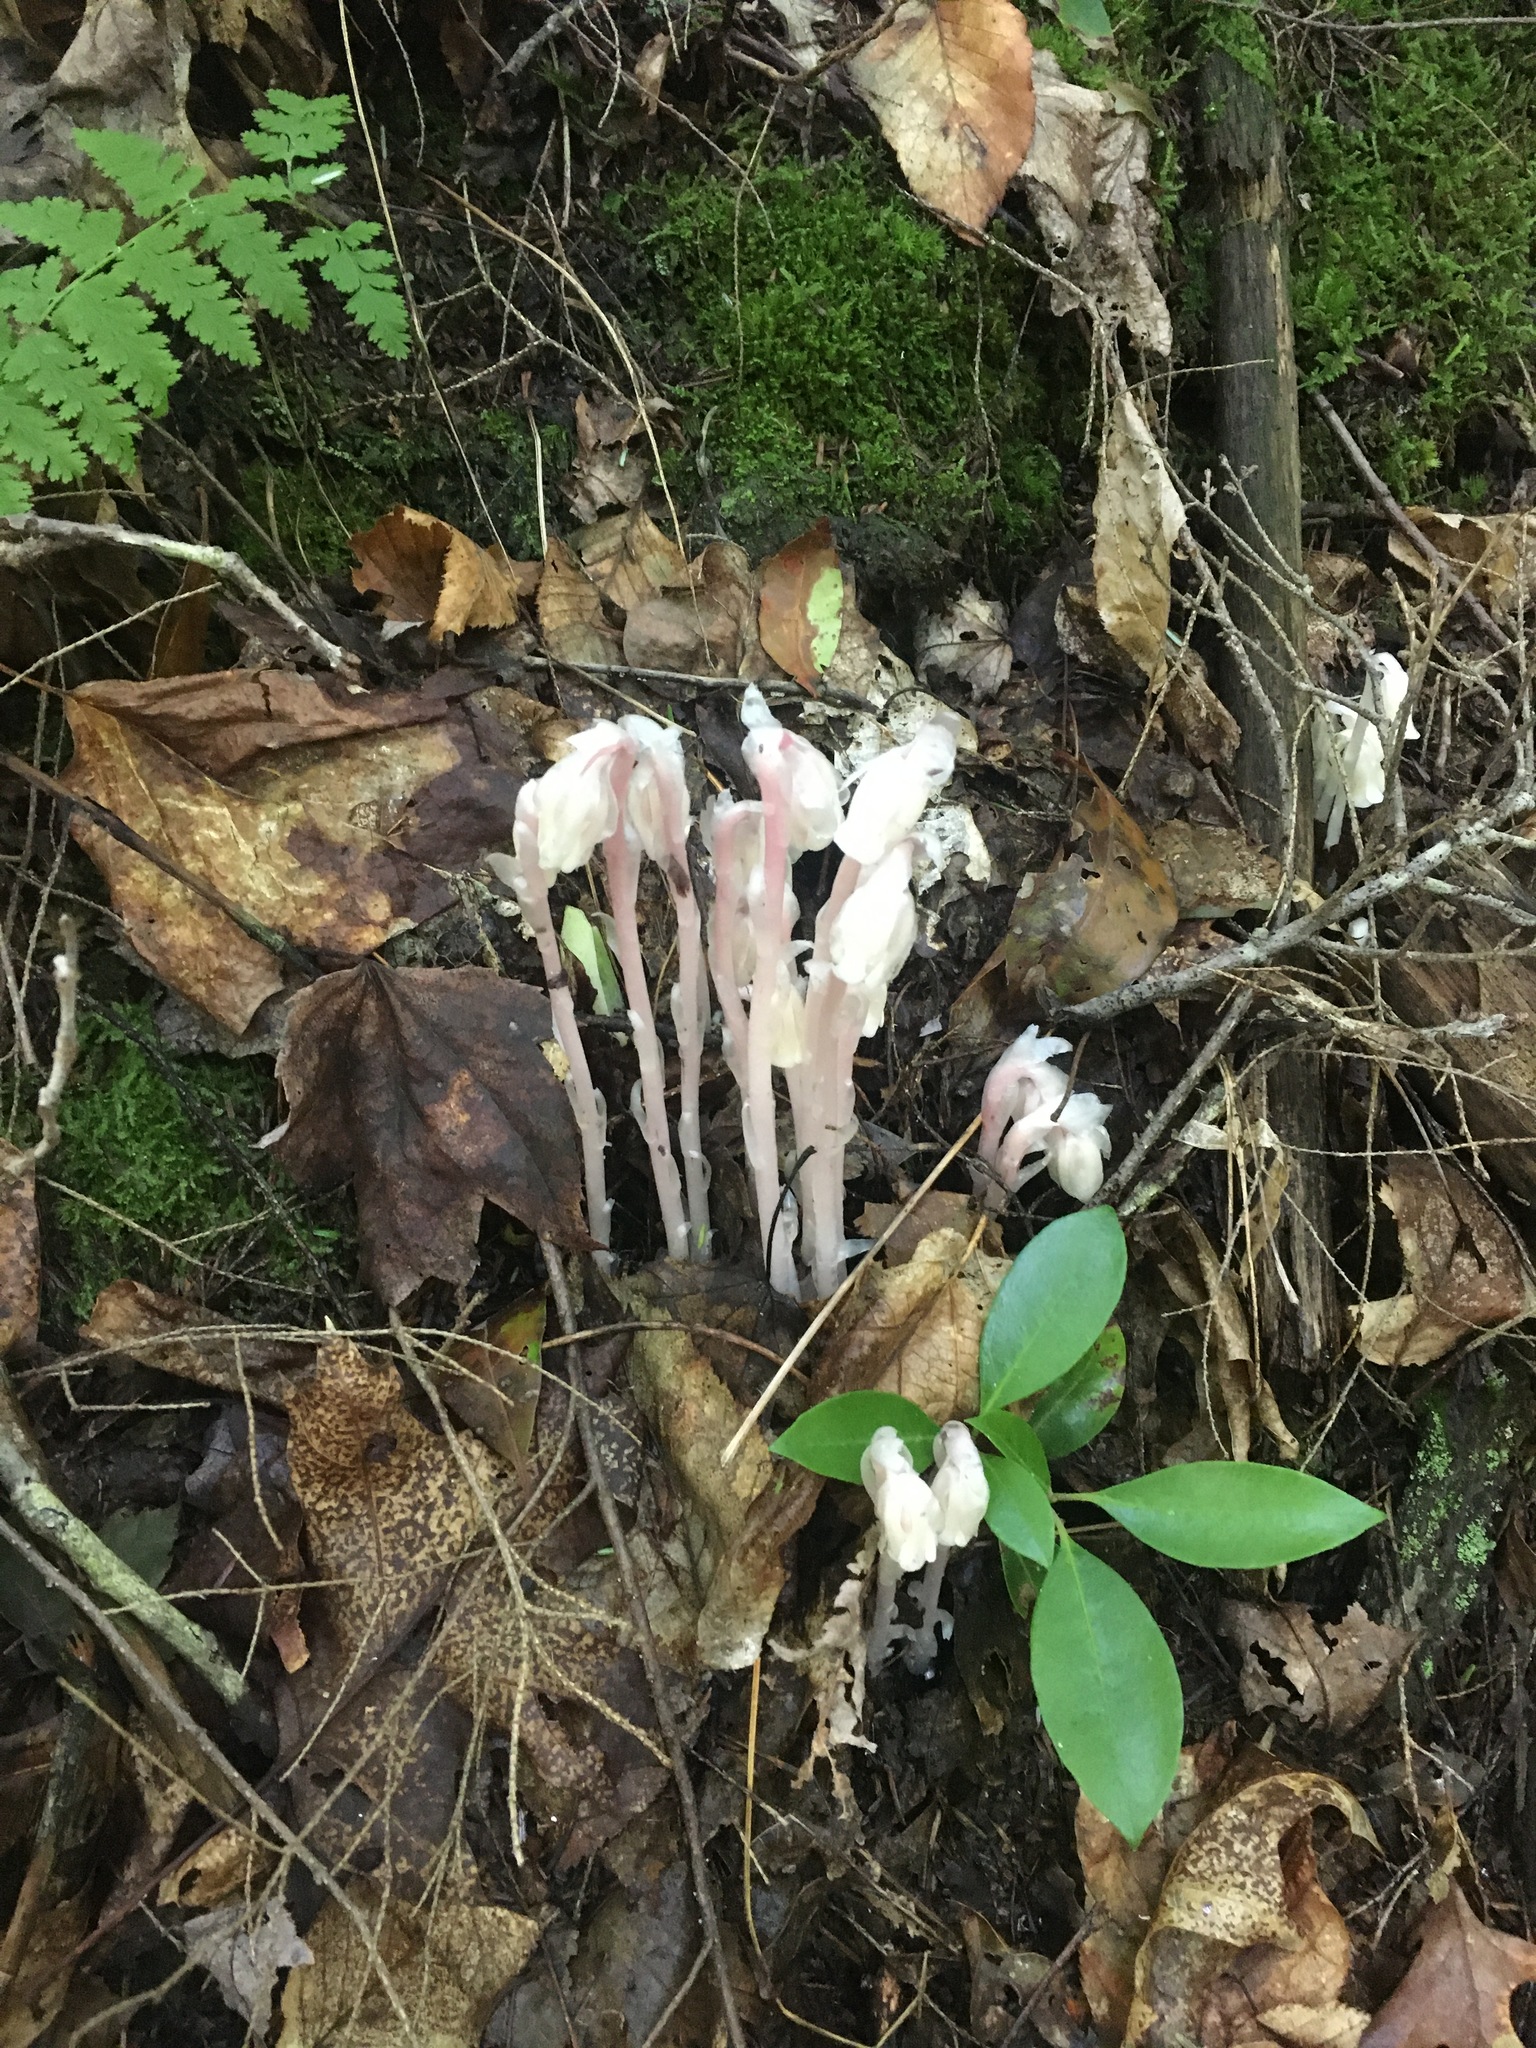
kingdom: Plantae
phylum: Tracheophyta
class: Magnoliopsida
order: Ericales
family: Ericaceae
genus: Monotropa
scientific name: Monotropa uniflora
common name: Convulsion root
